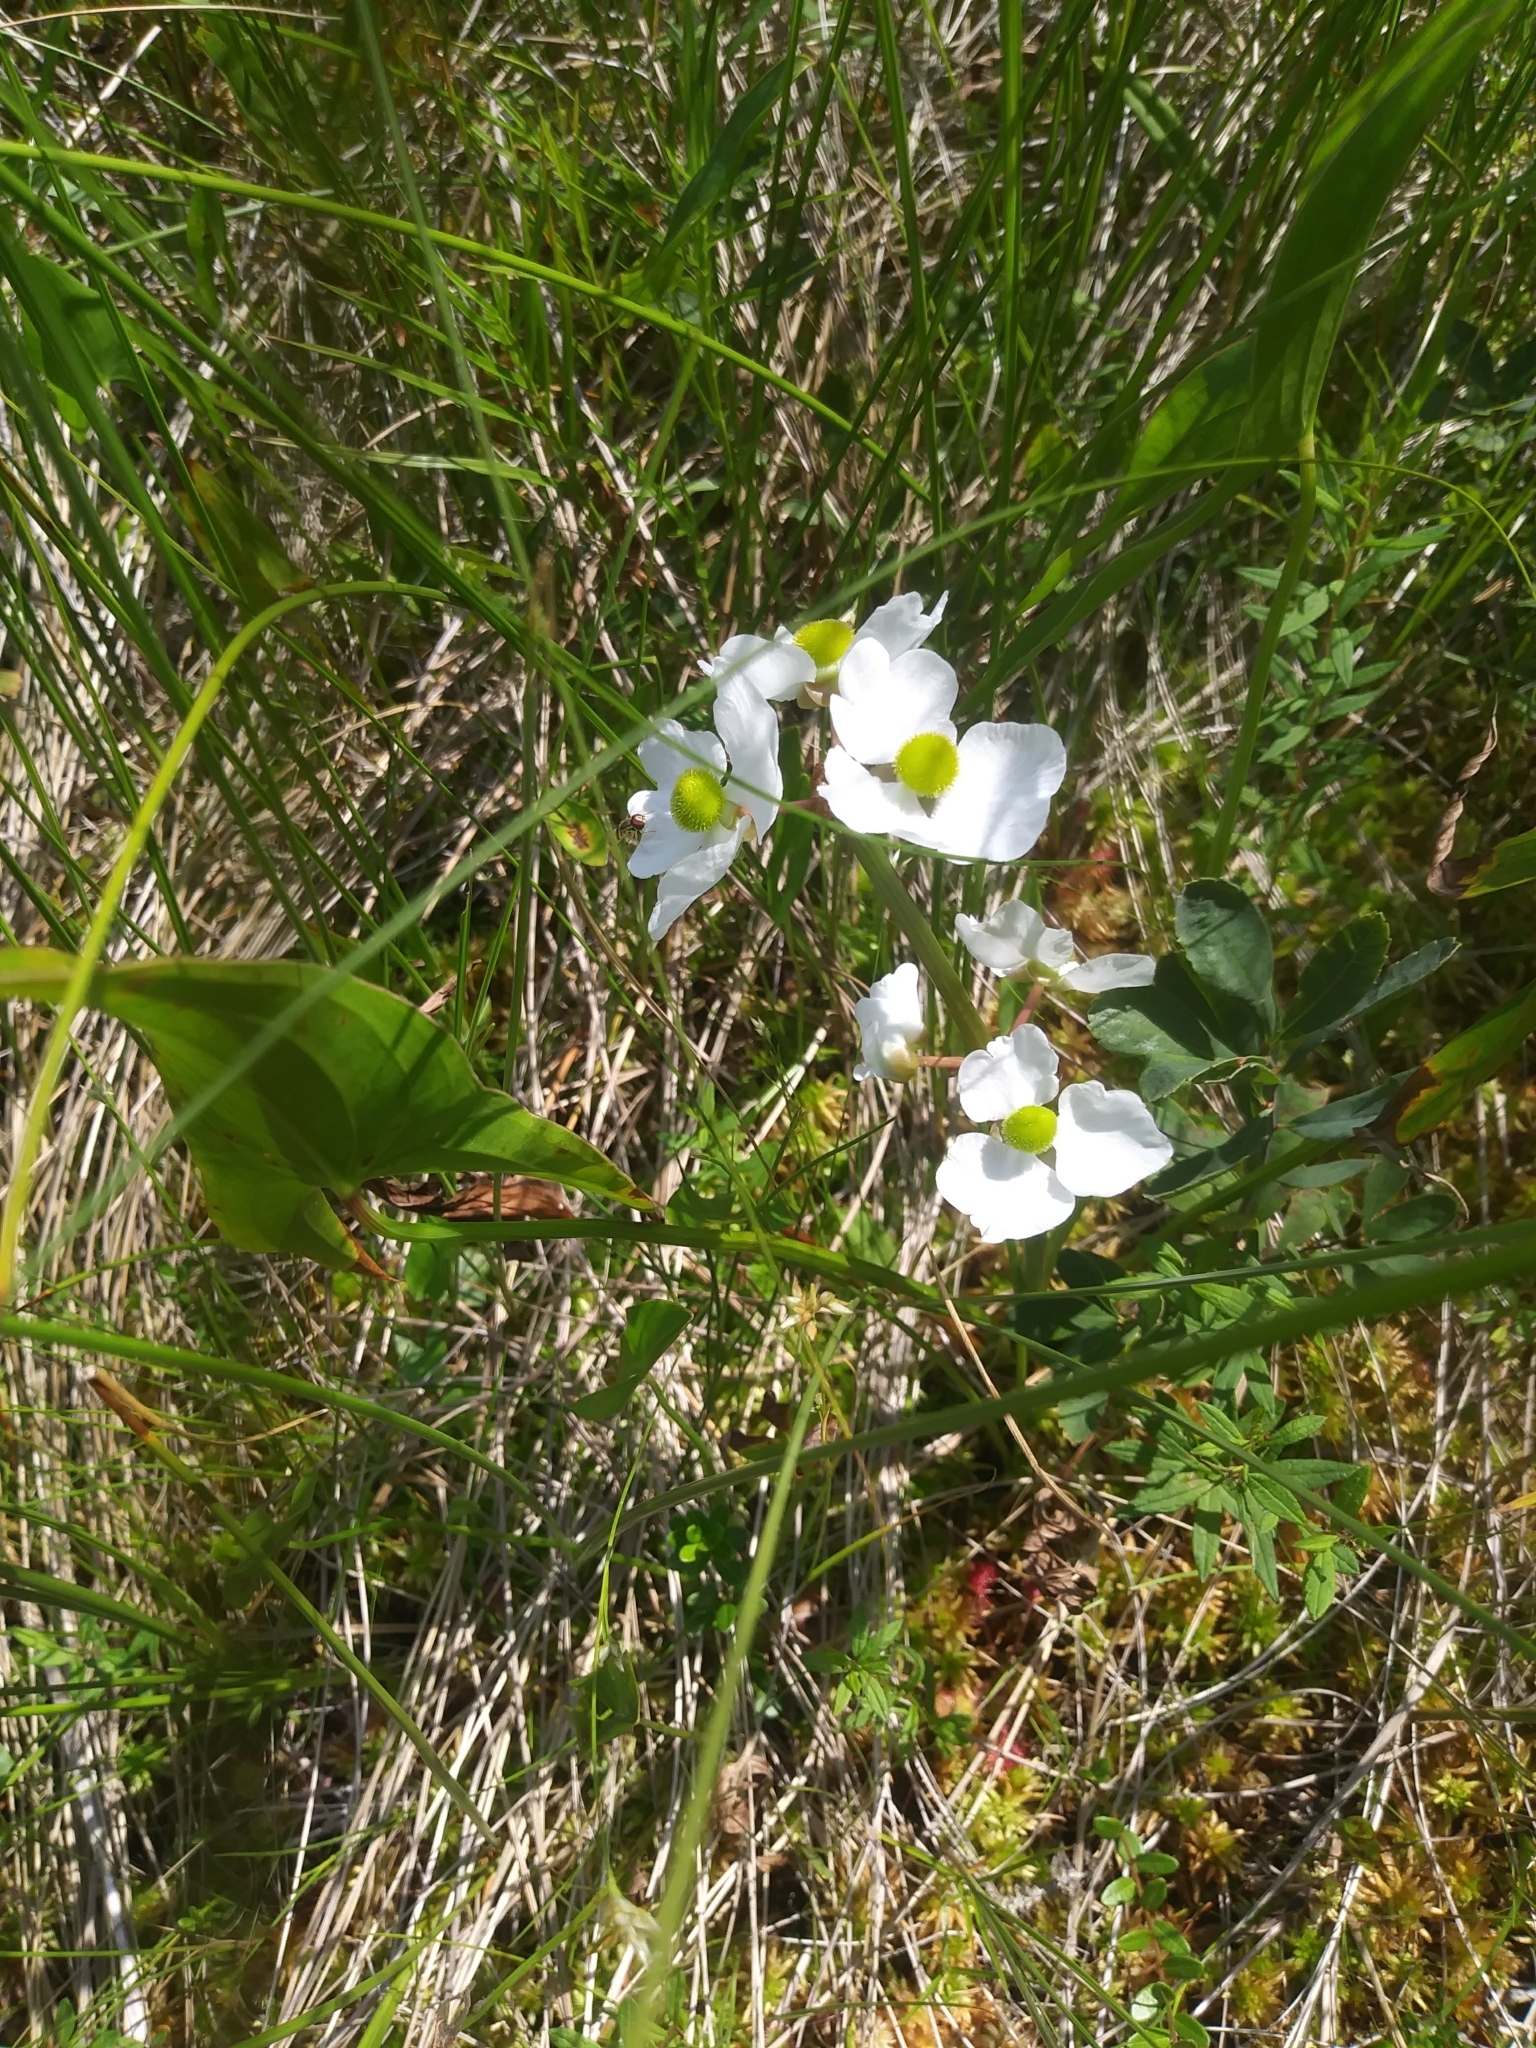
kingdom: Plantae
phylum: Tracheophyta
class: Liliopsida
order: Alismatales
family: Alismataceae
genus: Sagittaria
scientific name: Sagittaria latifolia
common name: Duck-potato
